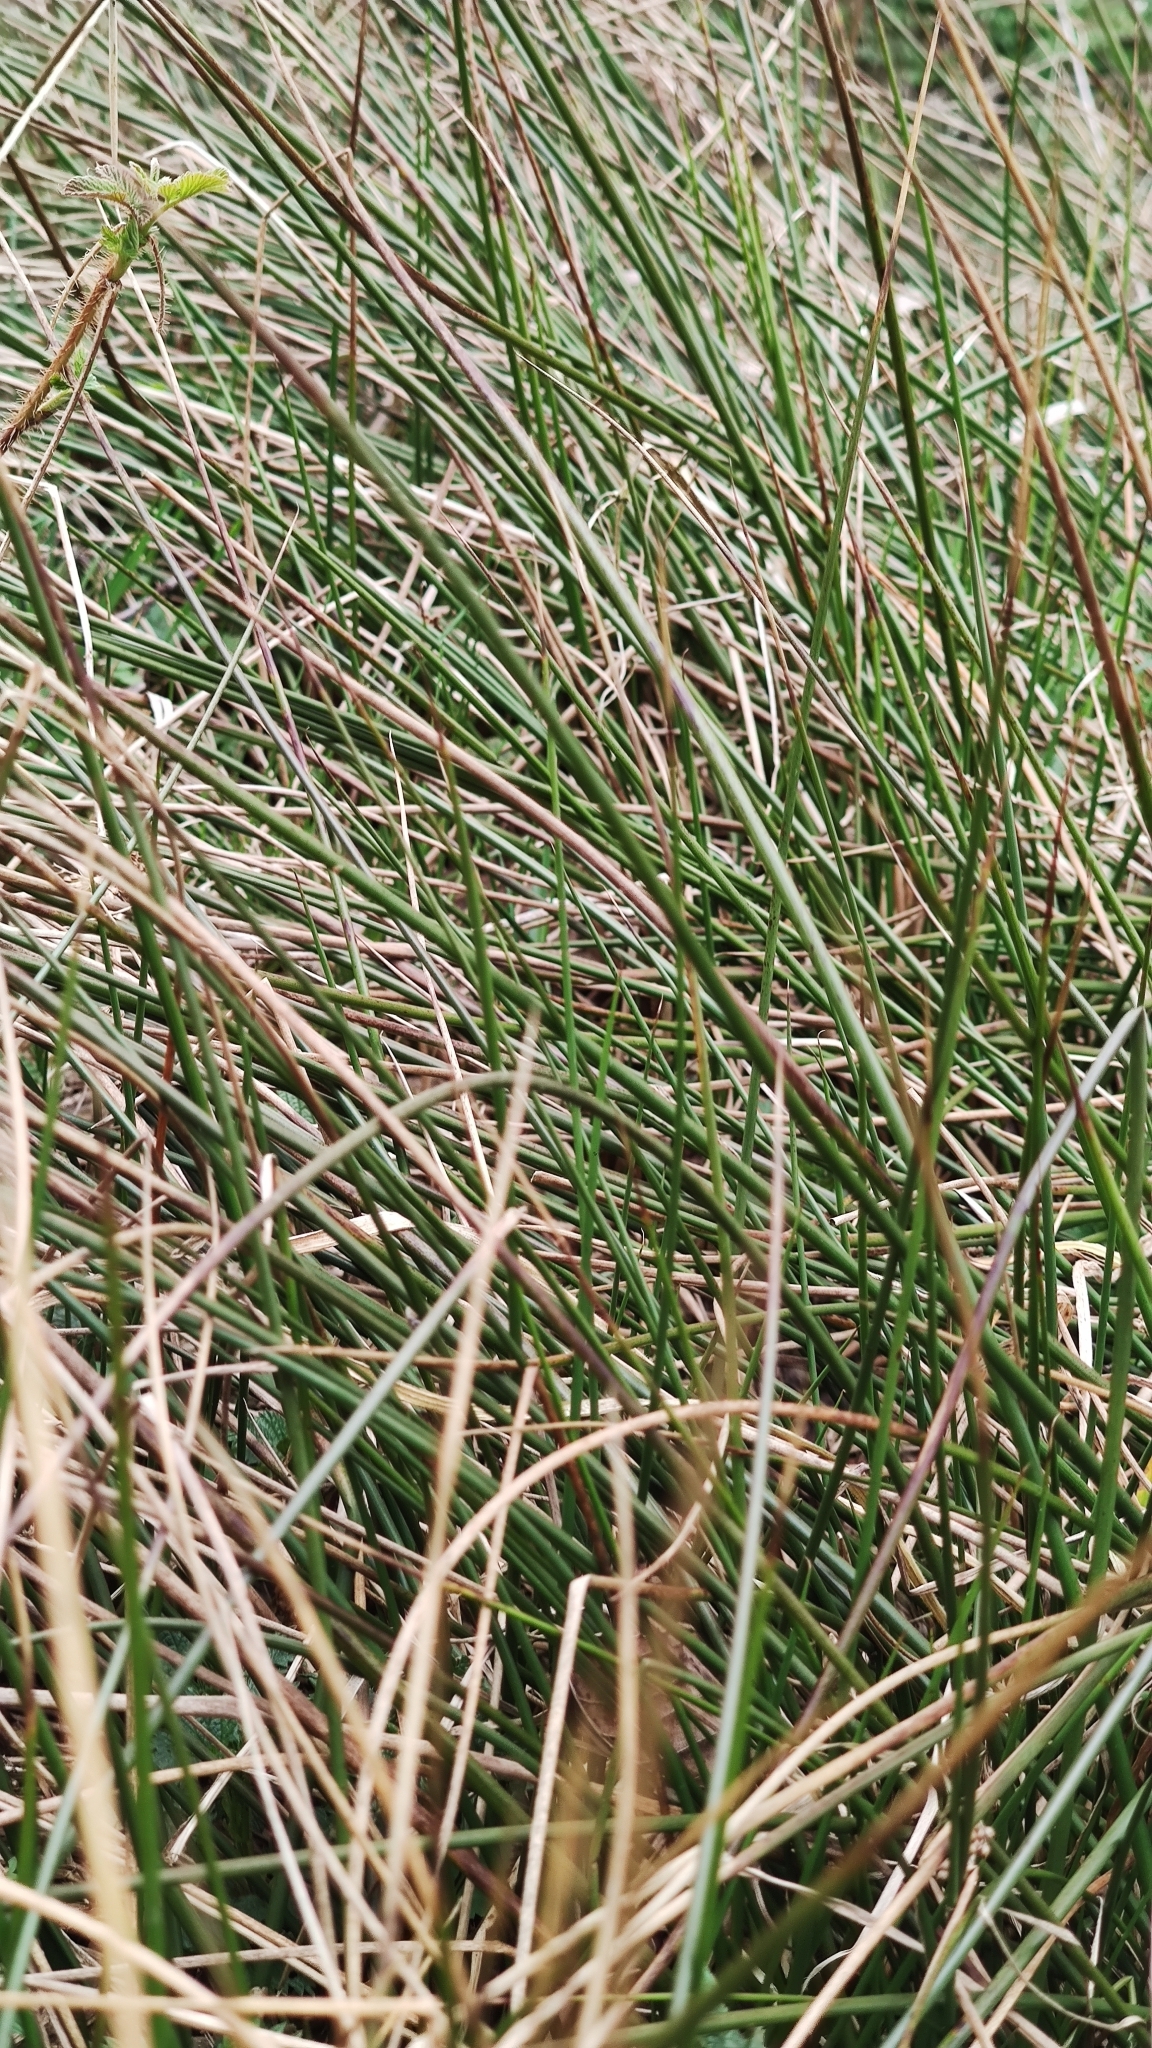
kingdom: Plantae
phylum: Tracheophyta
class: Liliopsida
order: Poales
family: Juncaceae
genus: Juncus
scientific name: Juncus effusus
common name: Soft rush
